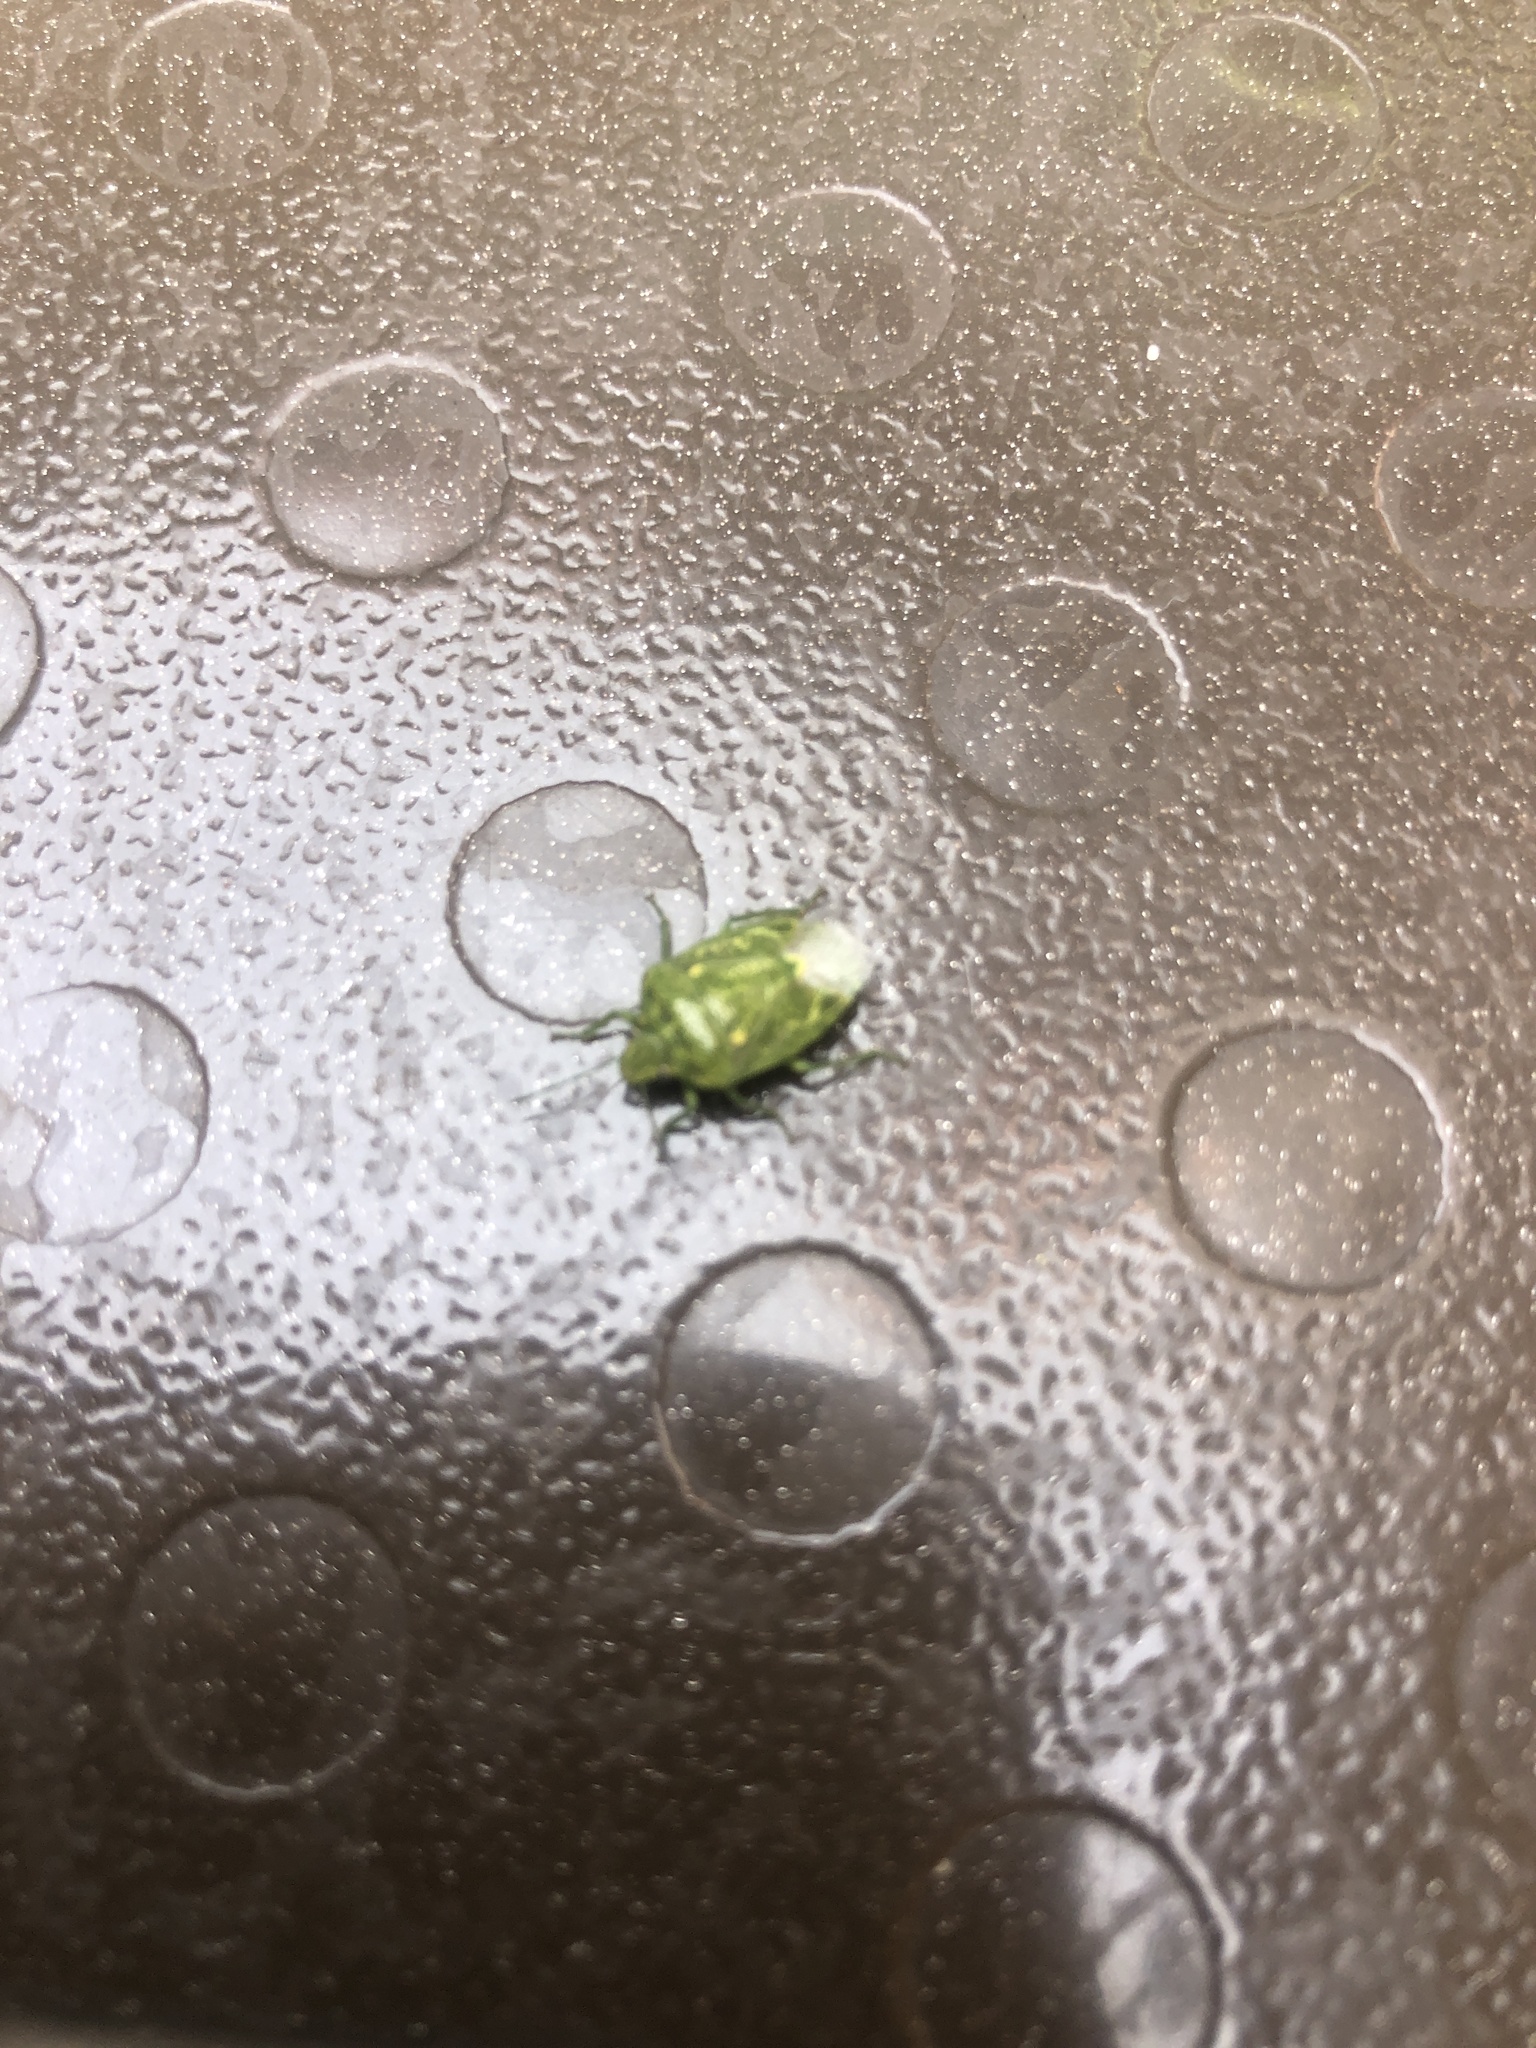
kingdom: Animalia
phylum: Arthropoda
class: Insecta
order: Hemiptera
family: Pentatomidae
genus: Banasa
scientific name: Banasa euchlora
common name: Cedar berry bug
